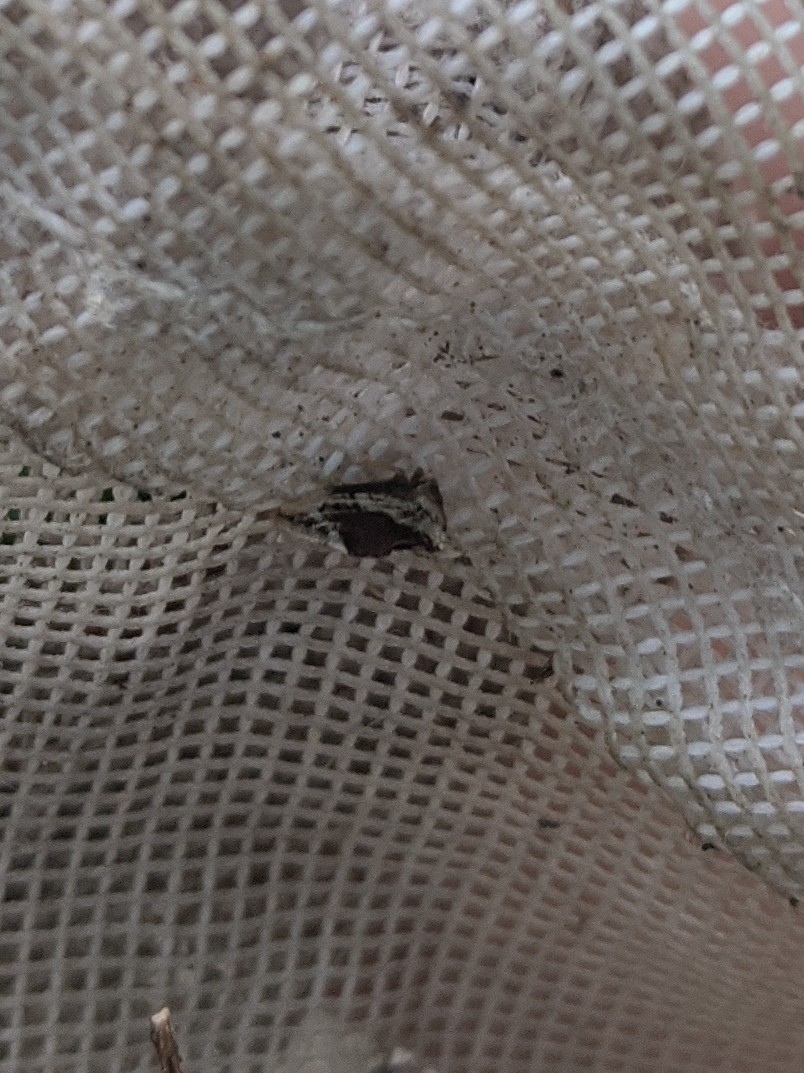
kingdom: Animalia
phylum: Arthropoda
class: Insecta
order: Hemiptera
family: Membracidae
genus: Entylia
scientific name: Entylia carinata
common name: Keeled treehopper
